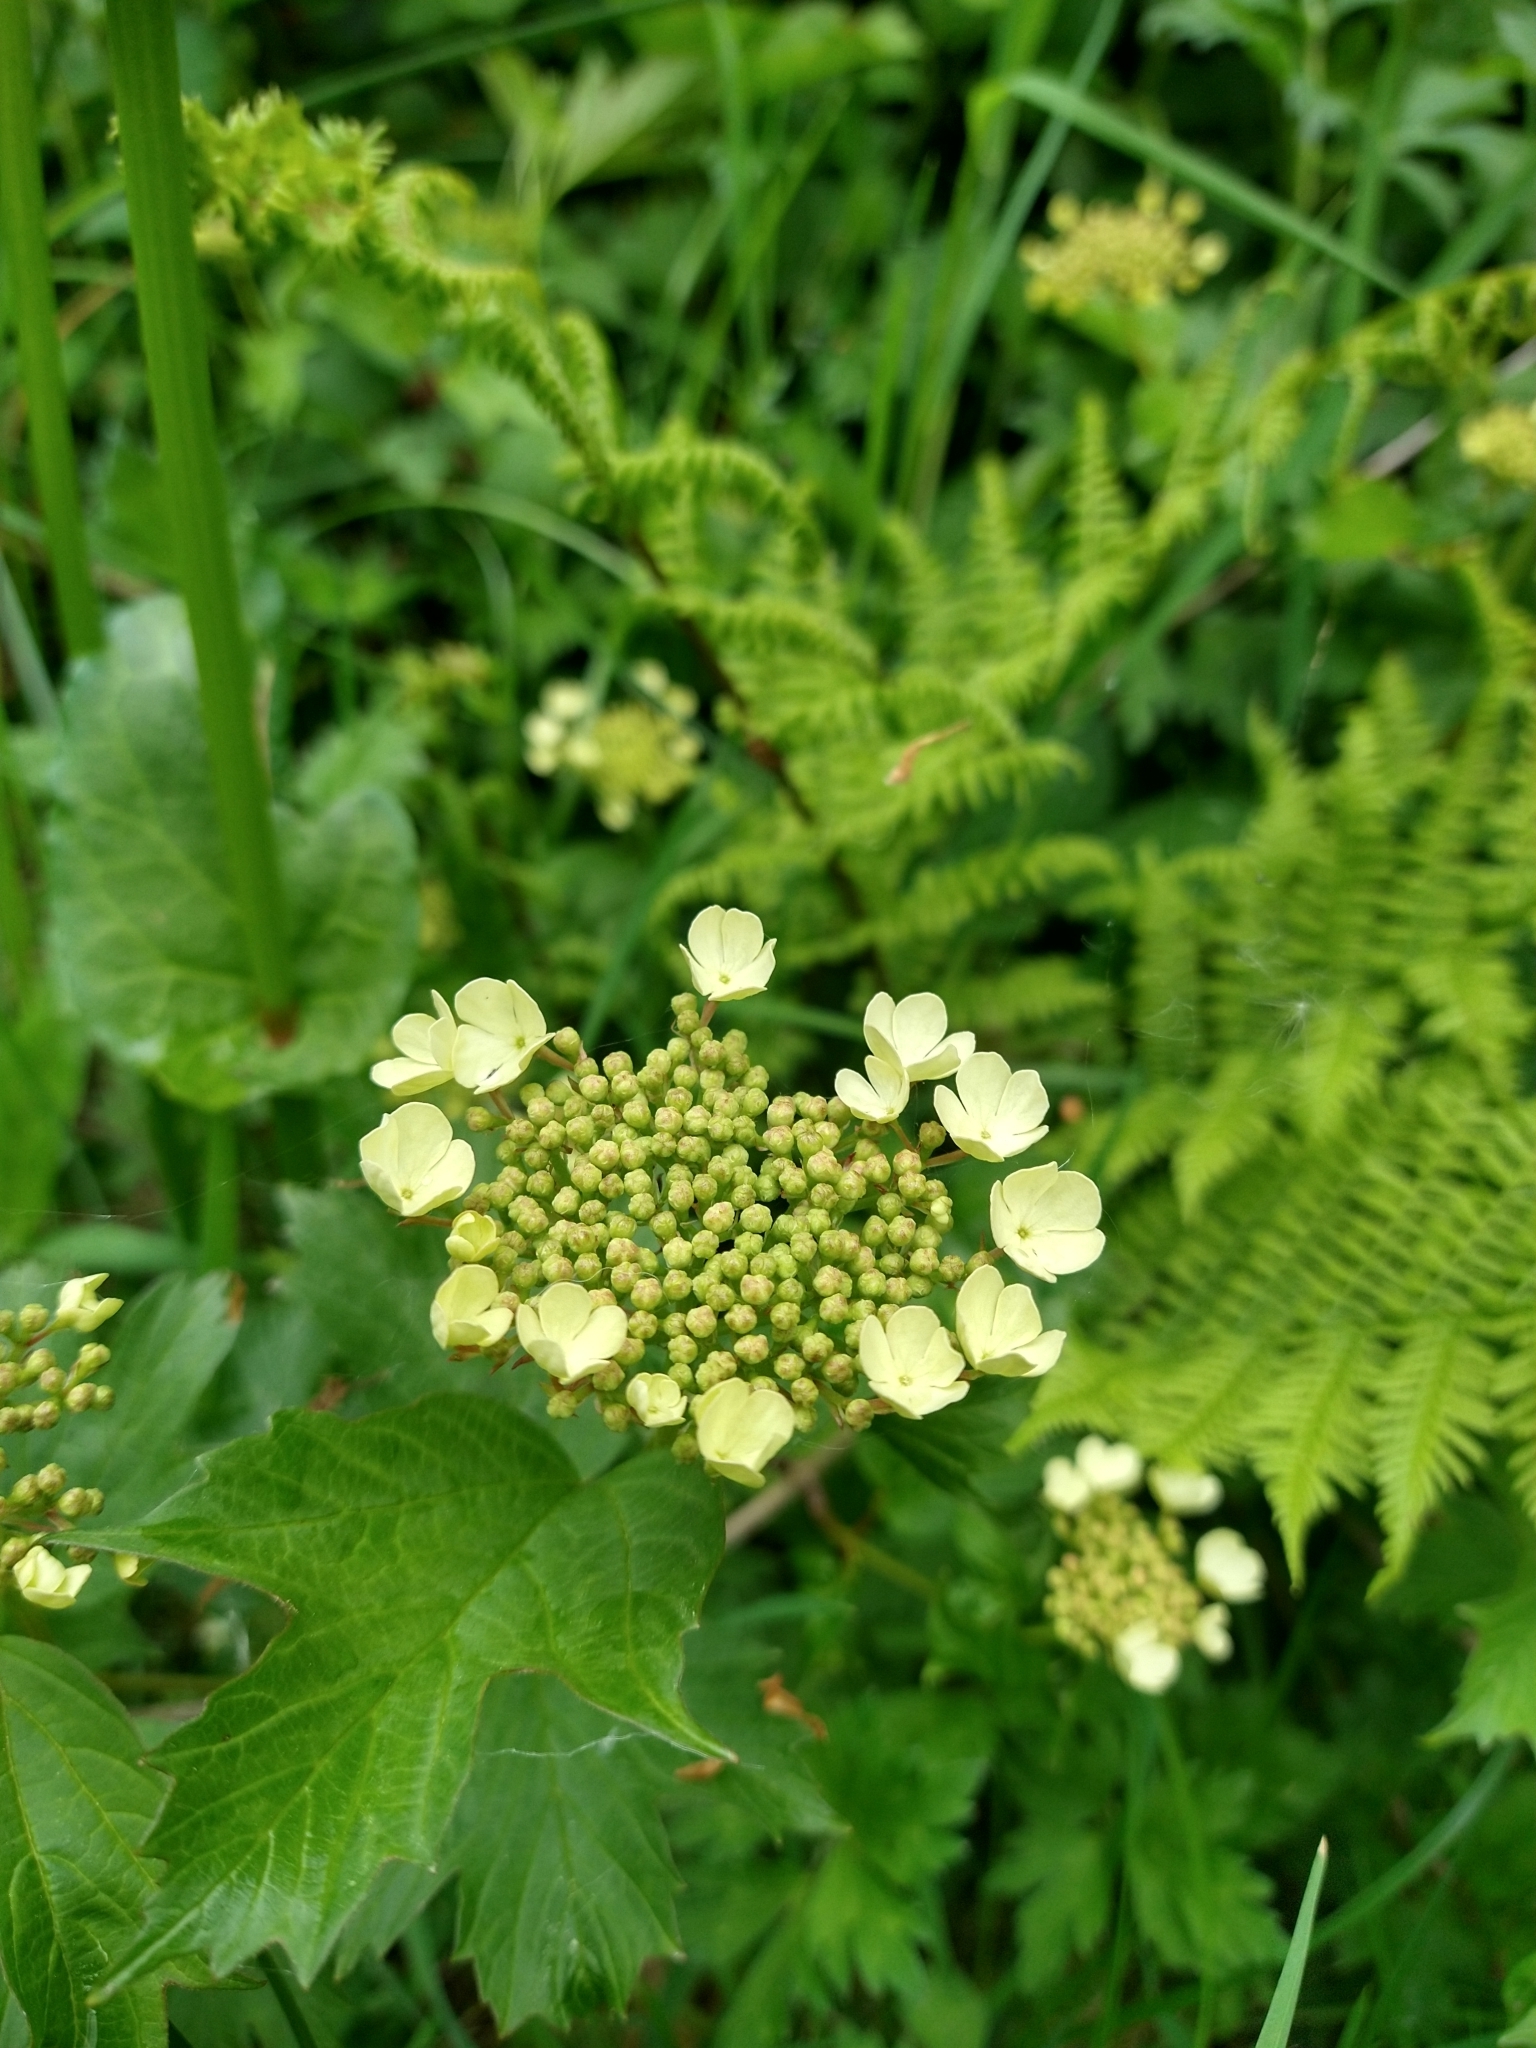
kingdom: Plantae
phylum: Tracheophyta
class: Magnoliopsida
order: Dipsacales
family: Viburnaceae
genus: Viburnum
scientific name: Viburnum opulus
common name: Guelder-rose
